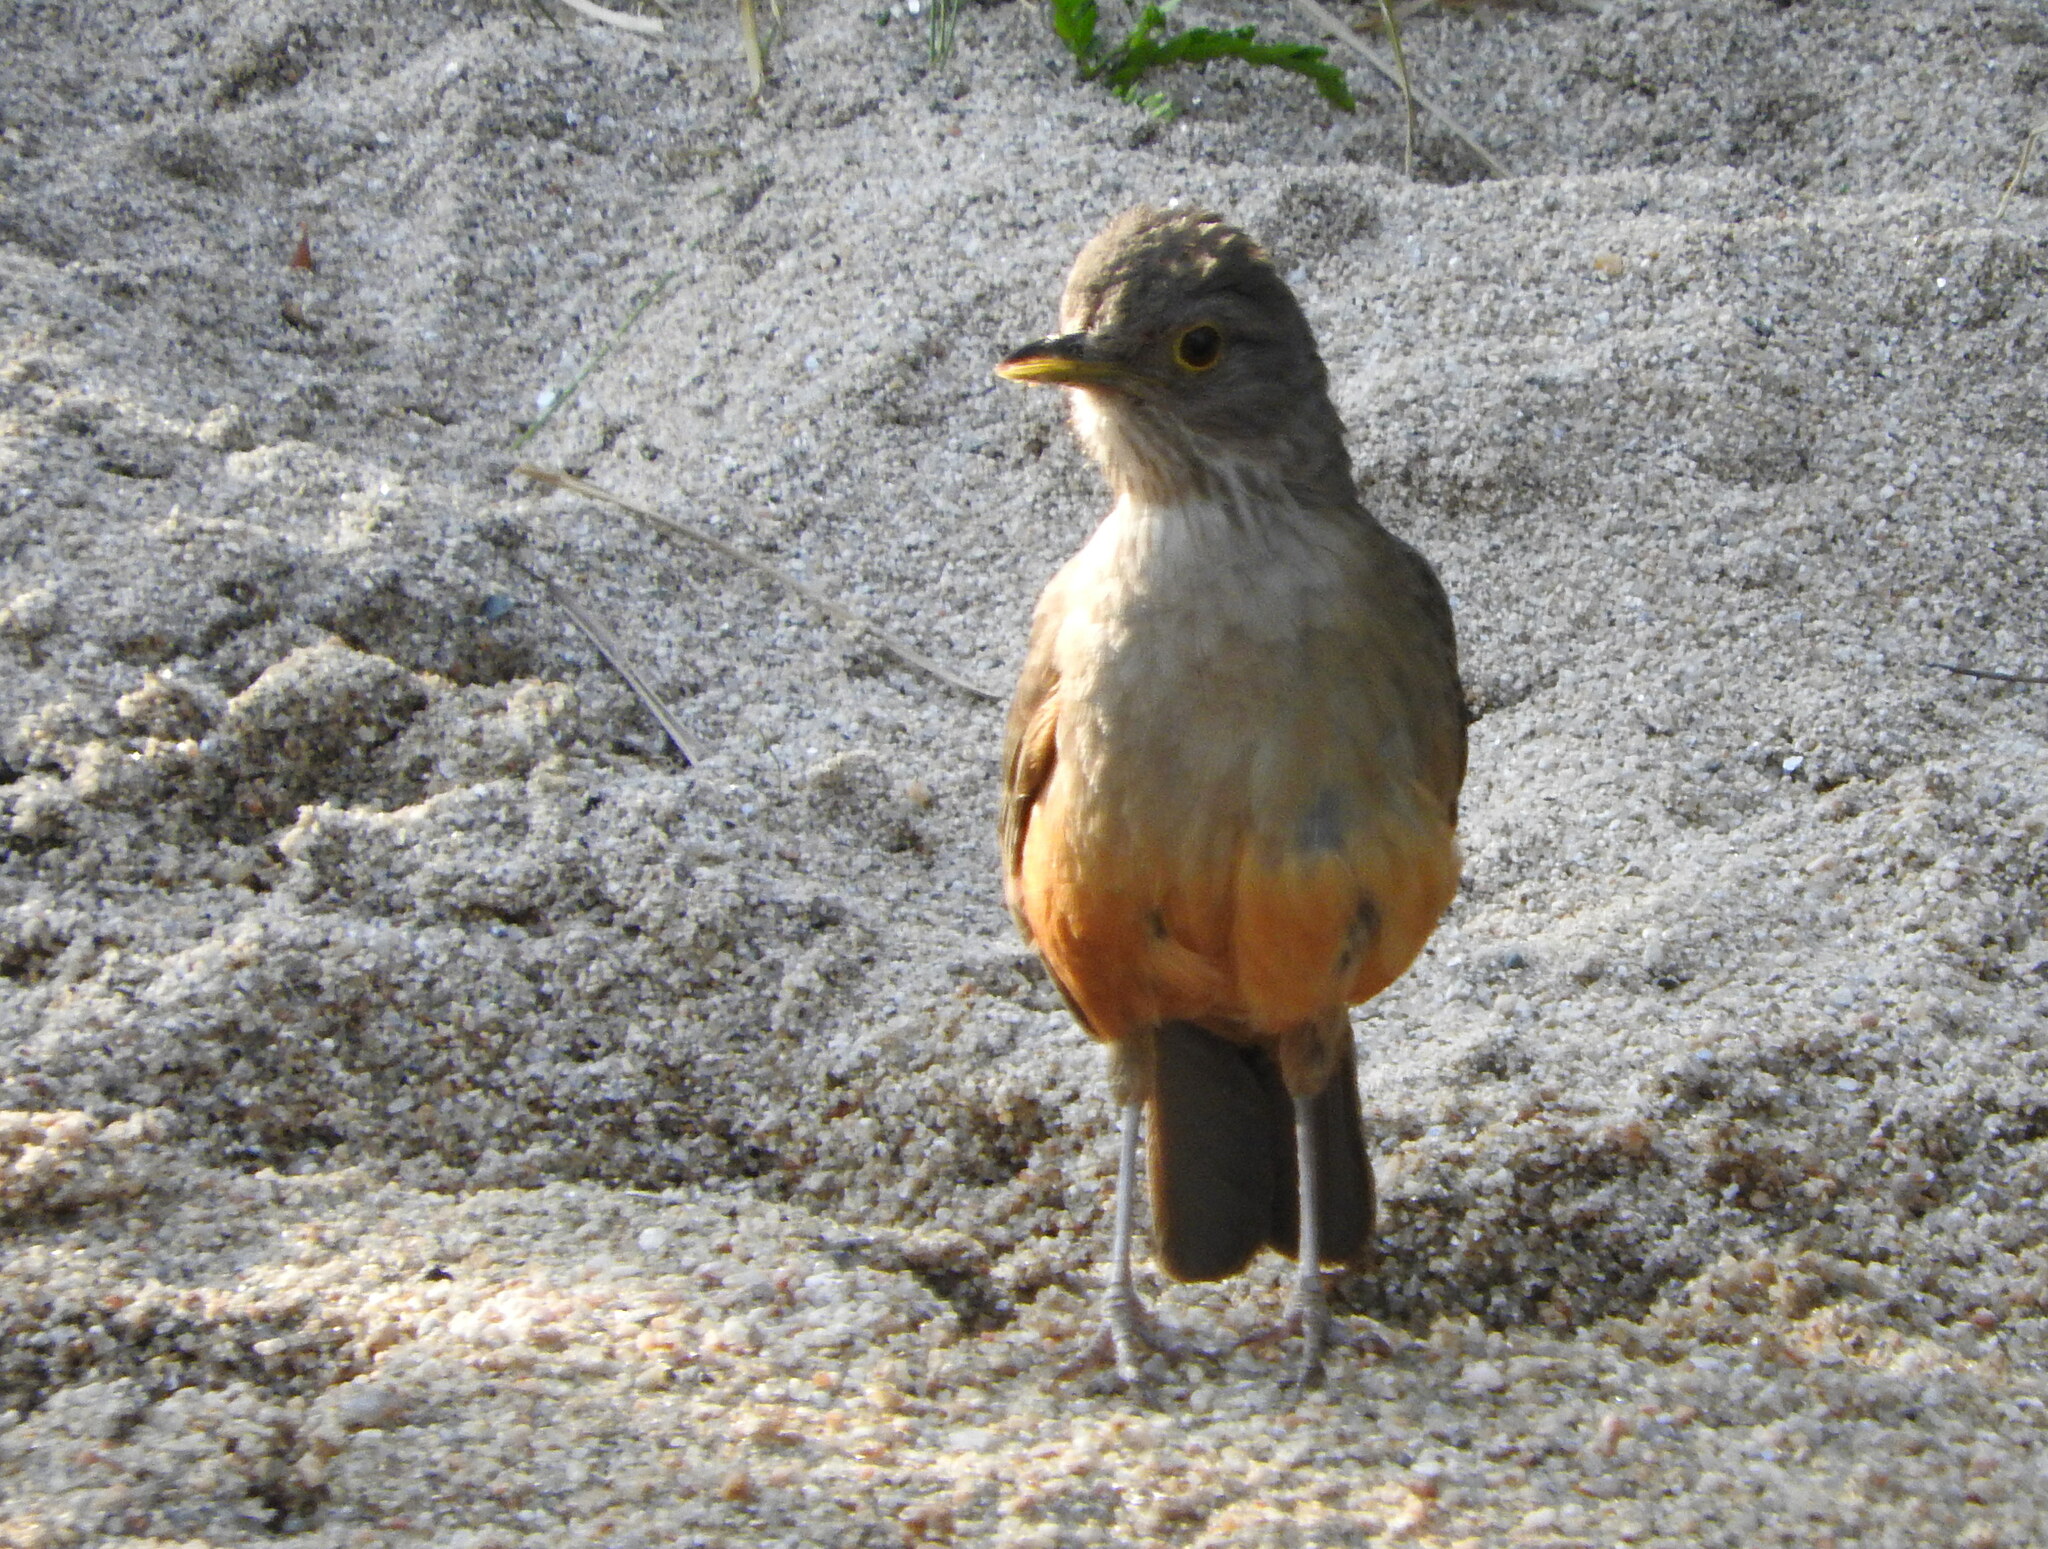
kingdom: Animalia
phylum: Chordata
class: Aves
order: Passeriformes
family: Turdidae
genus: Turdus
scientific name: Turdus rufiventris
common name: Rufous-bellied thrush
